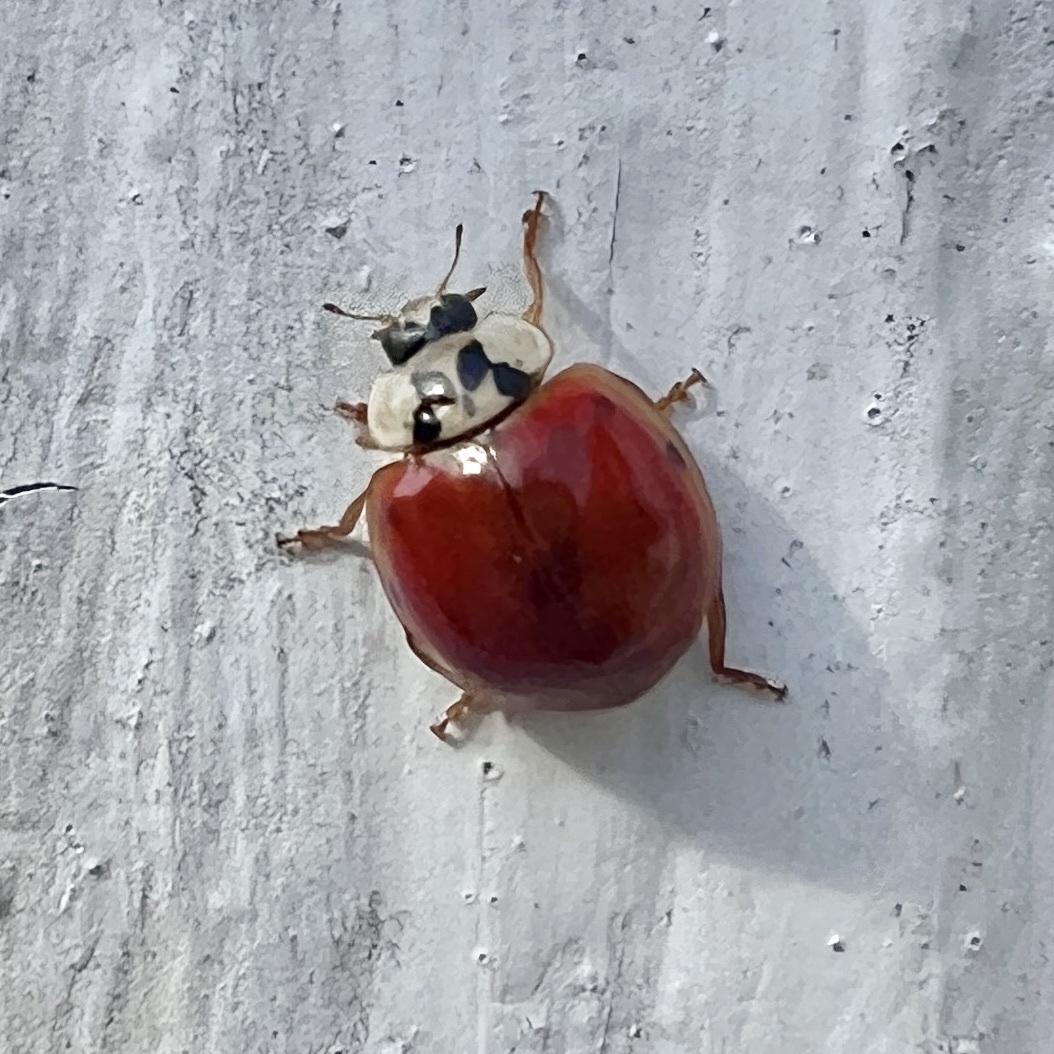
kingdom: Animalia
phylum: Arthropoda
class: Insecta
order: Coleoptera
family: Coccinellidae
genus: Harmonia
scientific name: Harmonia axyridis
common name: Harlequin ladybird
